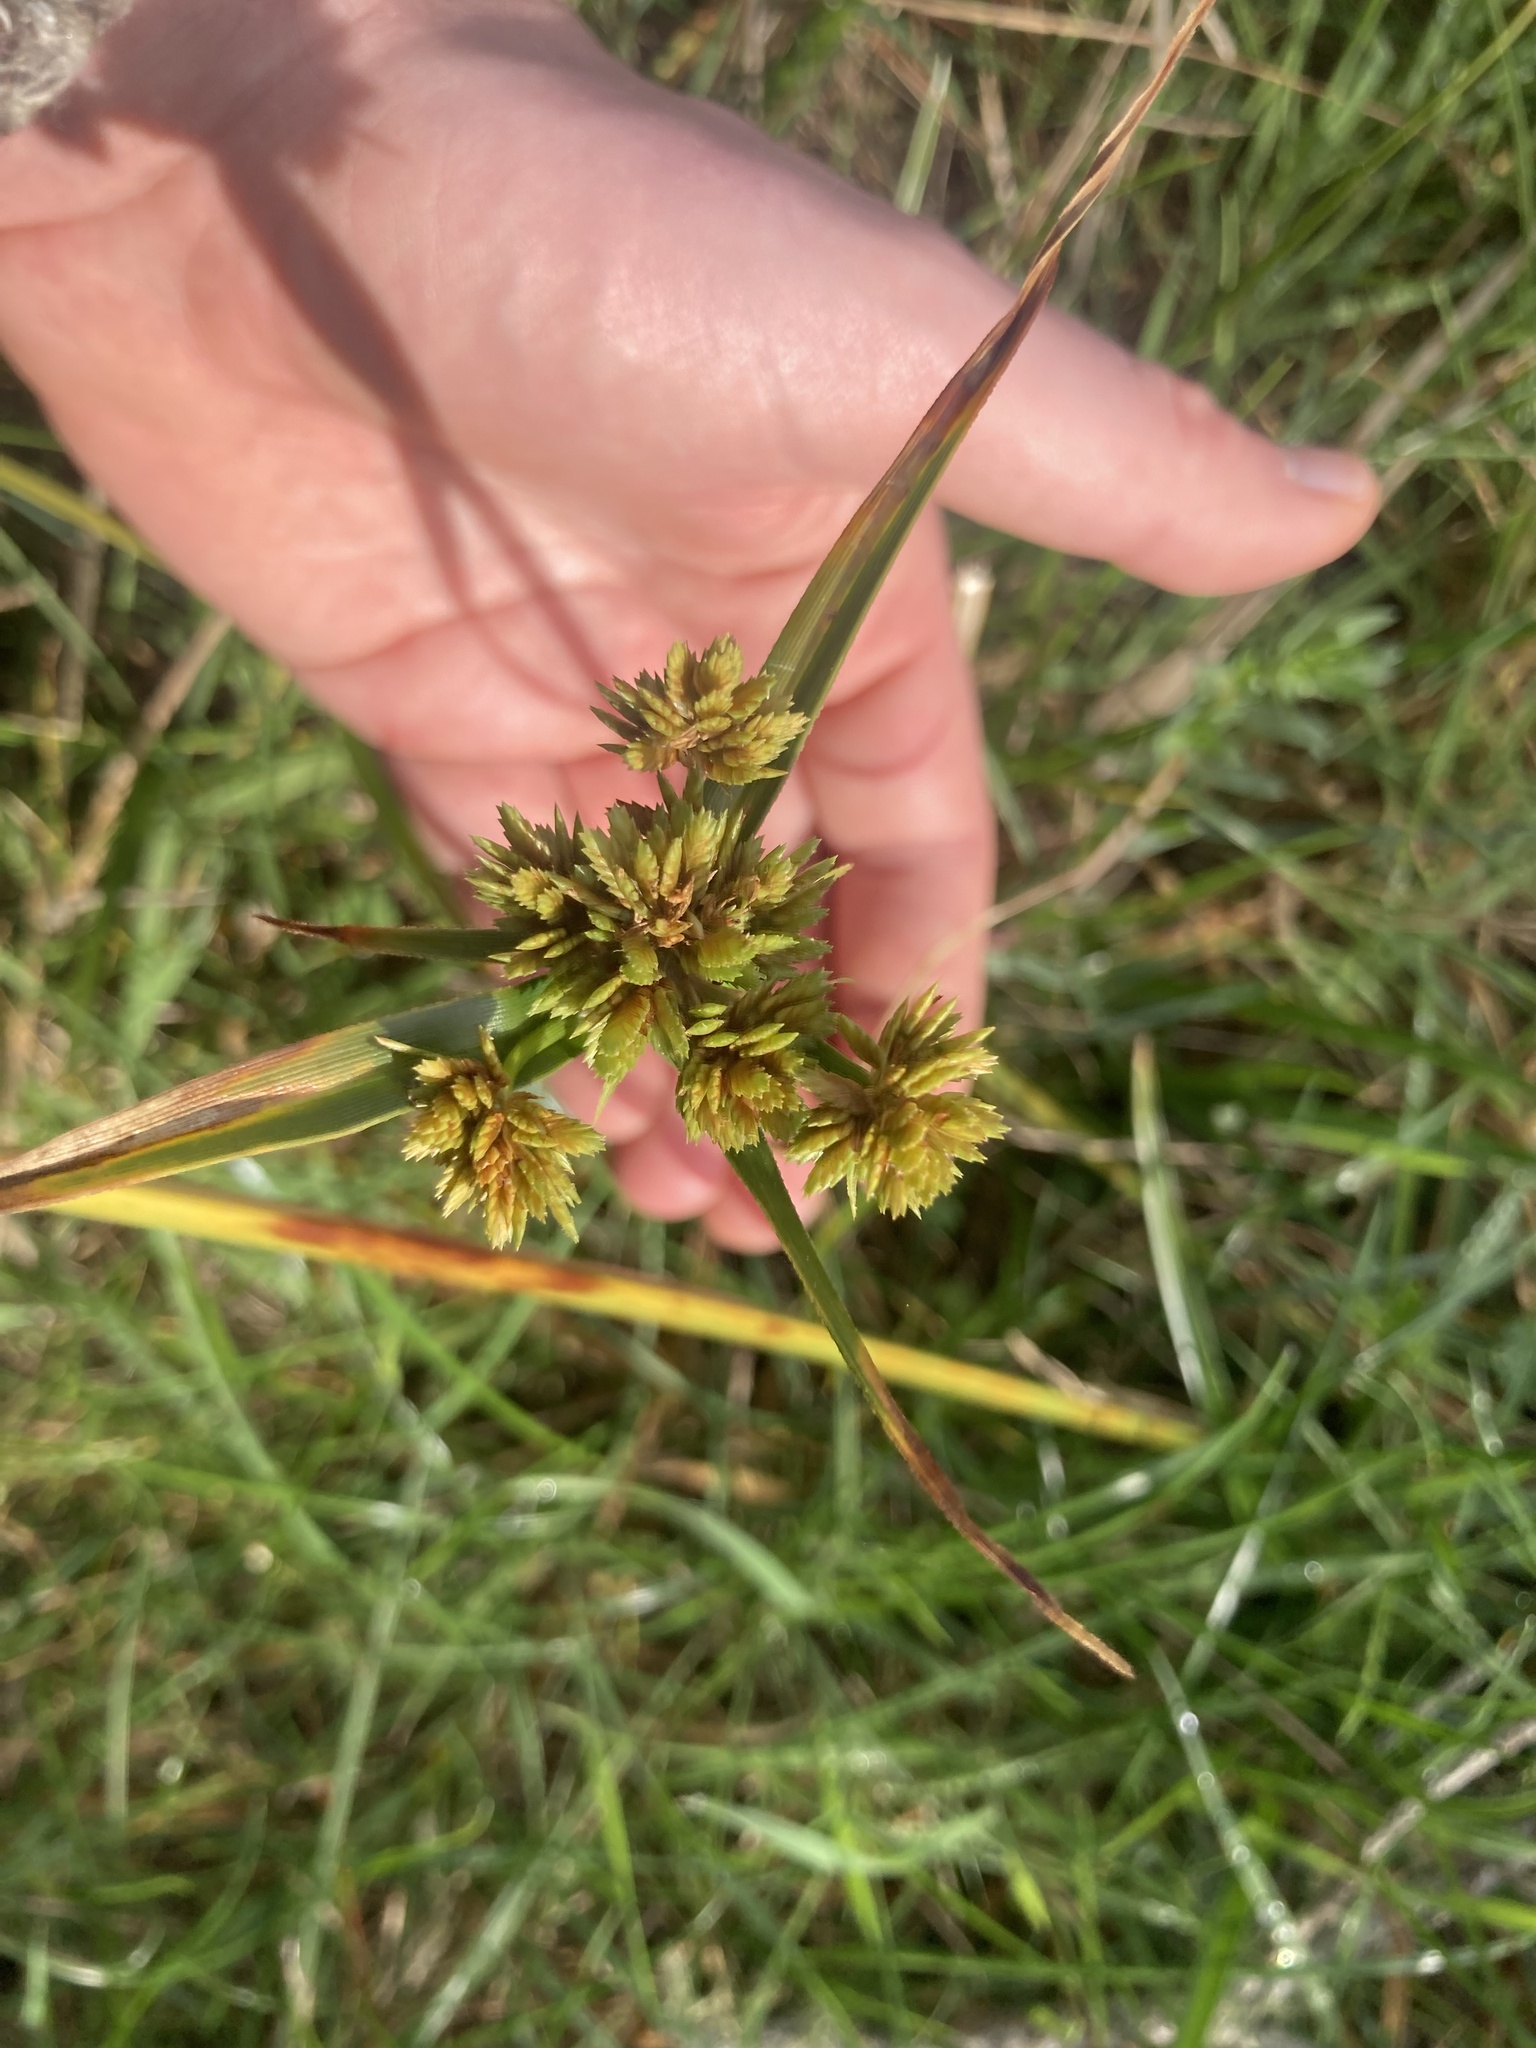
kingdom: Plantae
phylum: Tracheophyta
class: Liliopsida
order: Poales
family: Cyperaceae
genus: Cyperus
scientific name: Cyperus eragrostis
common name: Tall flatsedge
